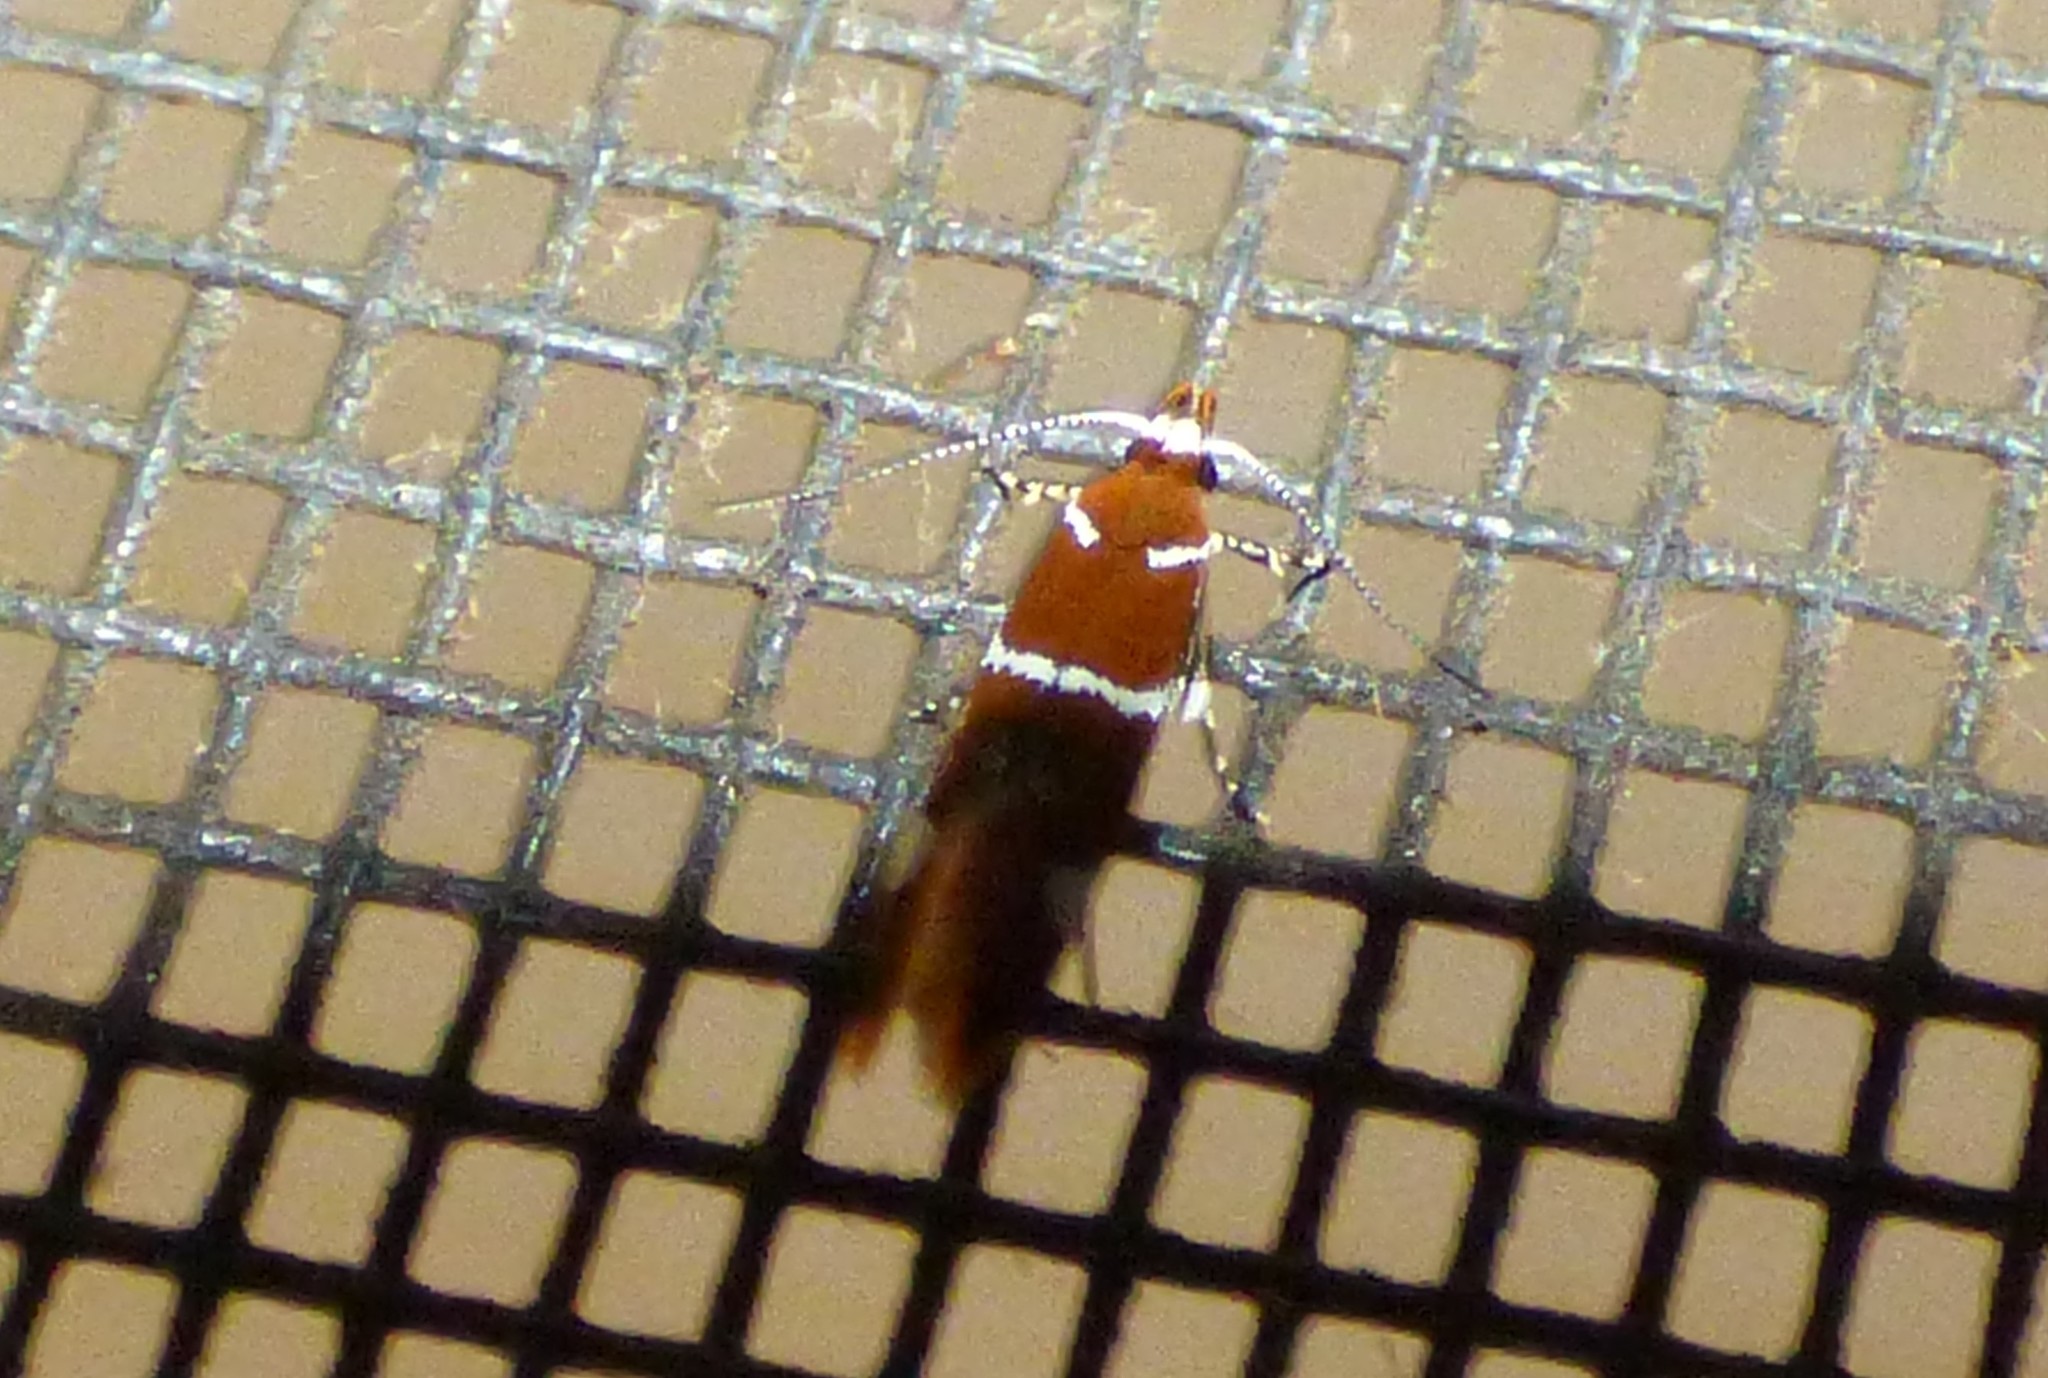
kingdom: Animalia
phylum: Arthropoda
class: Insecta
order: Lepidoptera
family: Oecophoridae
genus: Promalactis
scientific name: Promalactis suzukiella
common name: Moth
